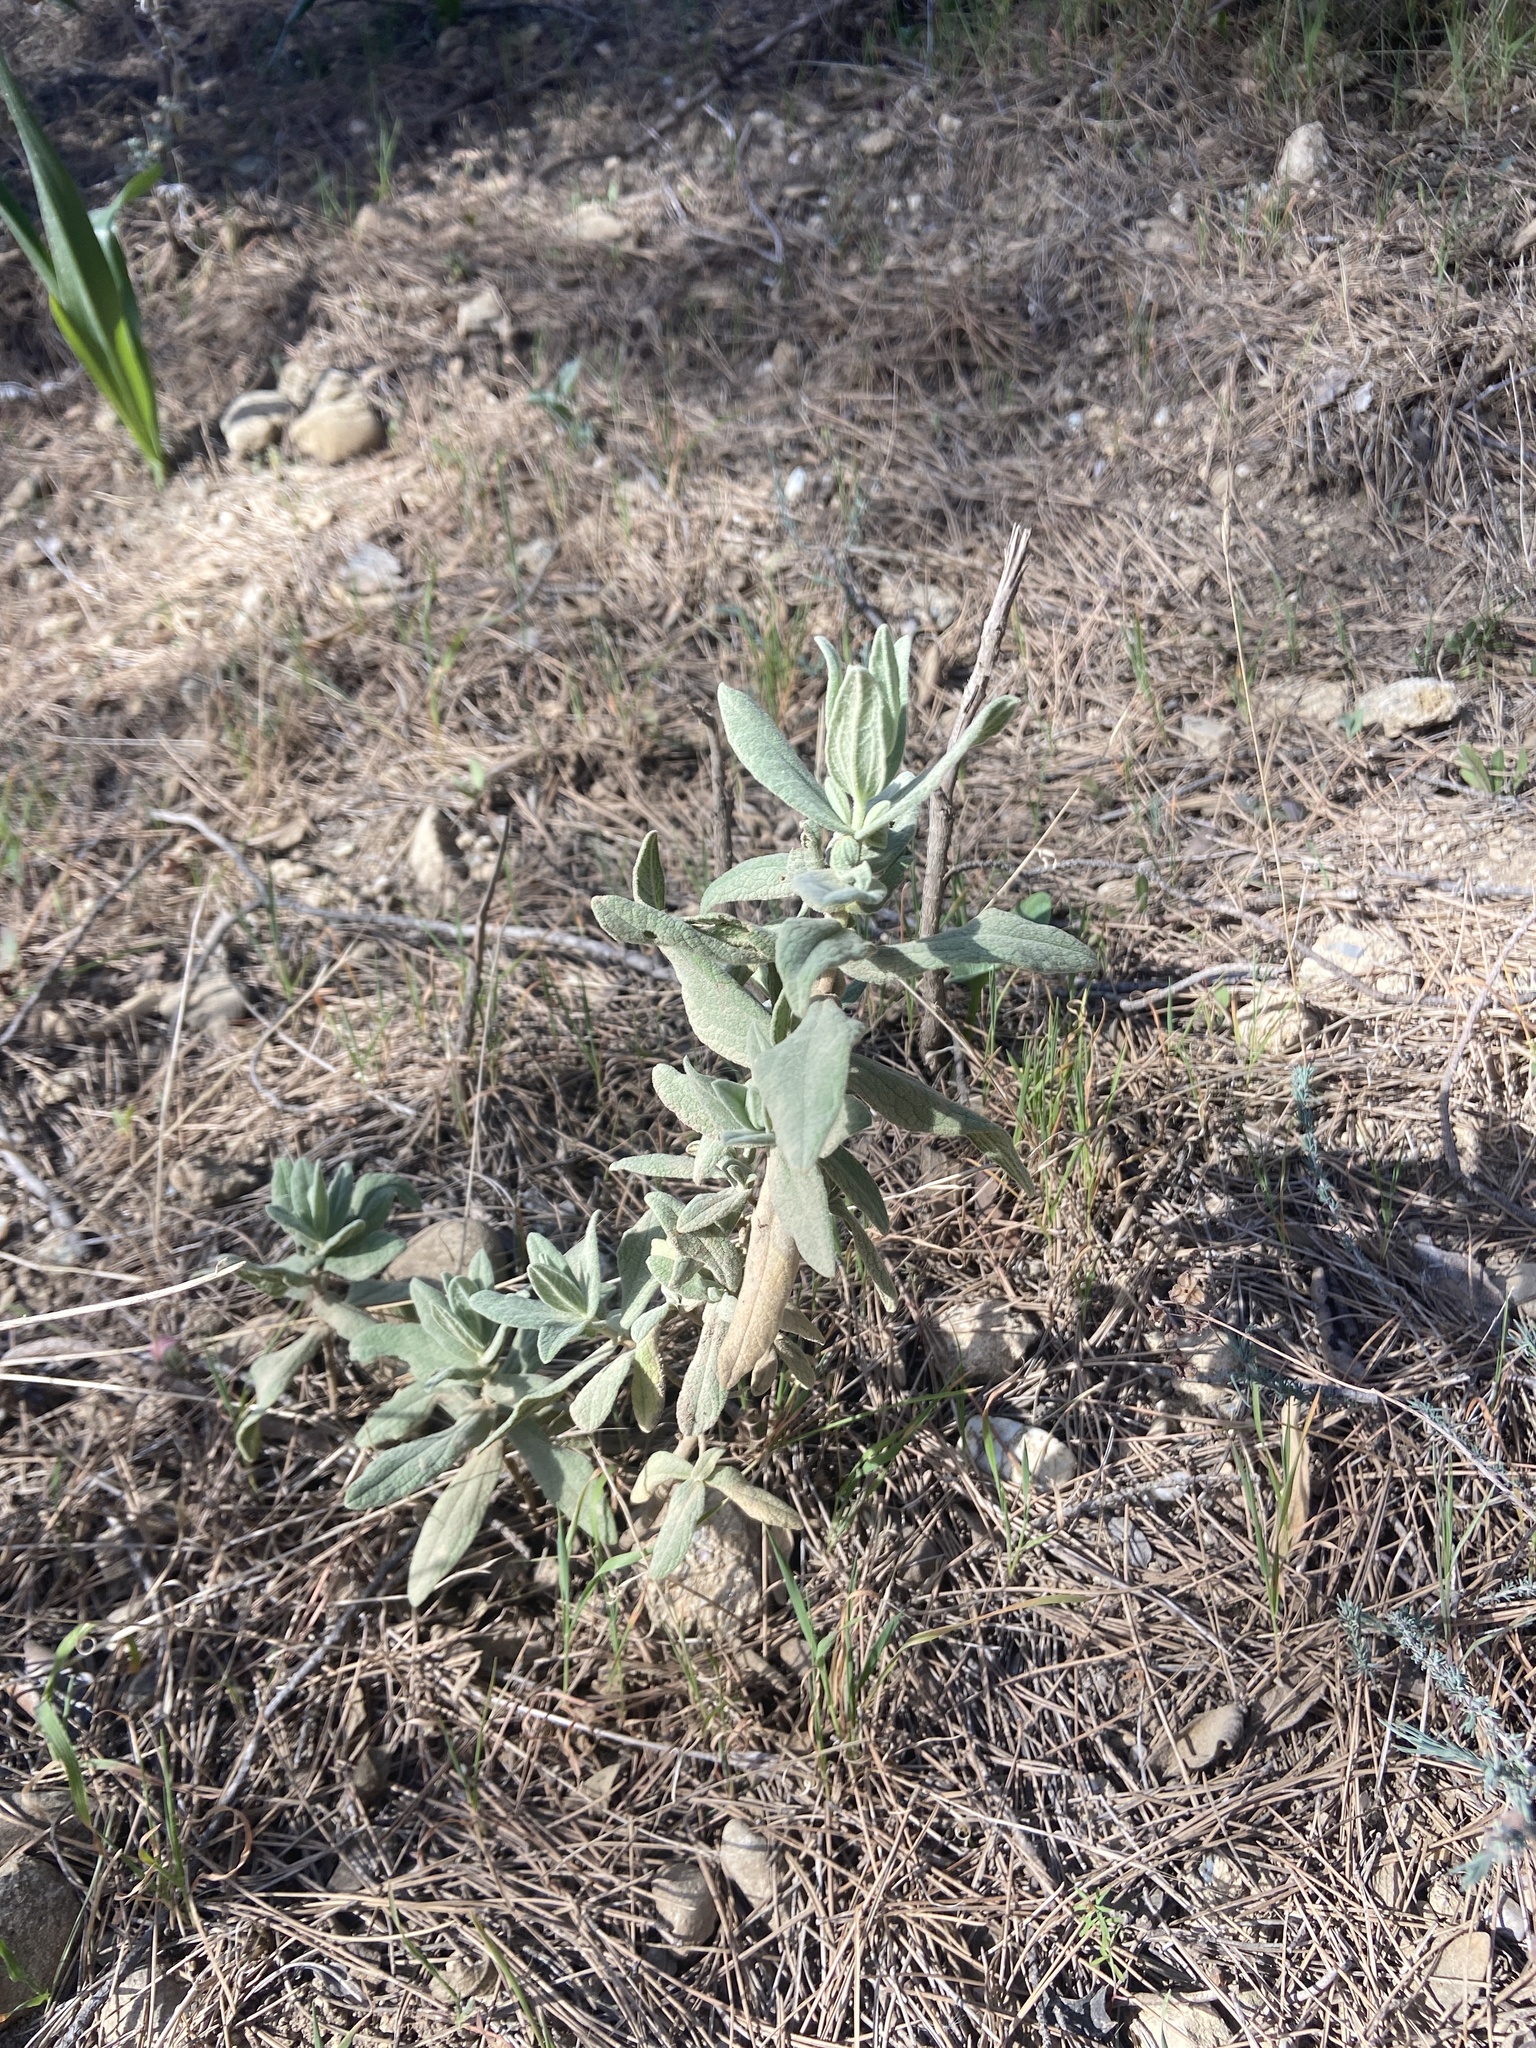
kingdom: Plantae
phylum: Tracheophyta
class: Magnoliopsida
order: Malvales
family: Cistaceae
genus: Cistus
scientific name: Cistus albidus
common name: White-leaf rock-rose
